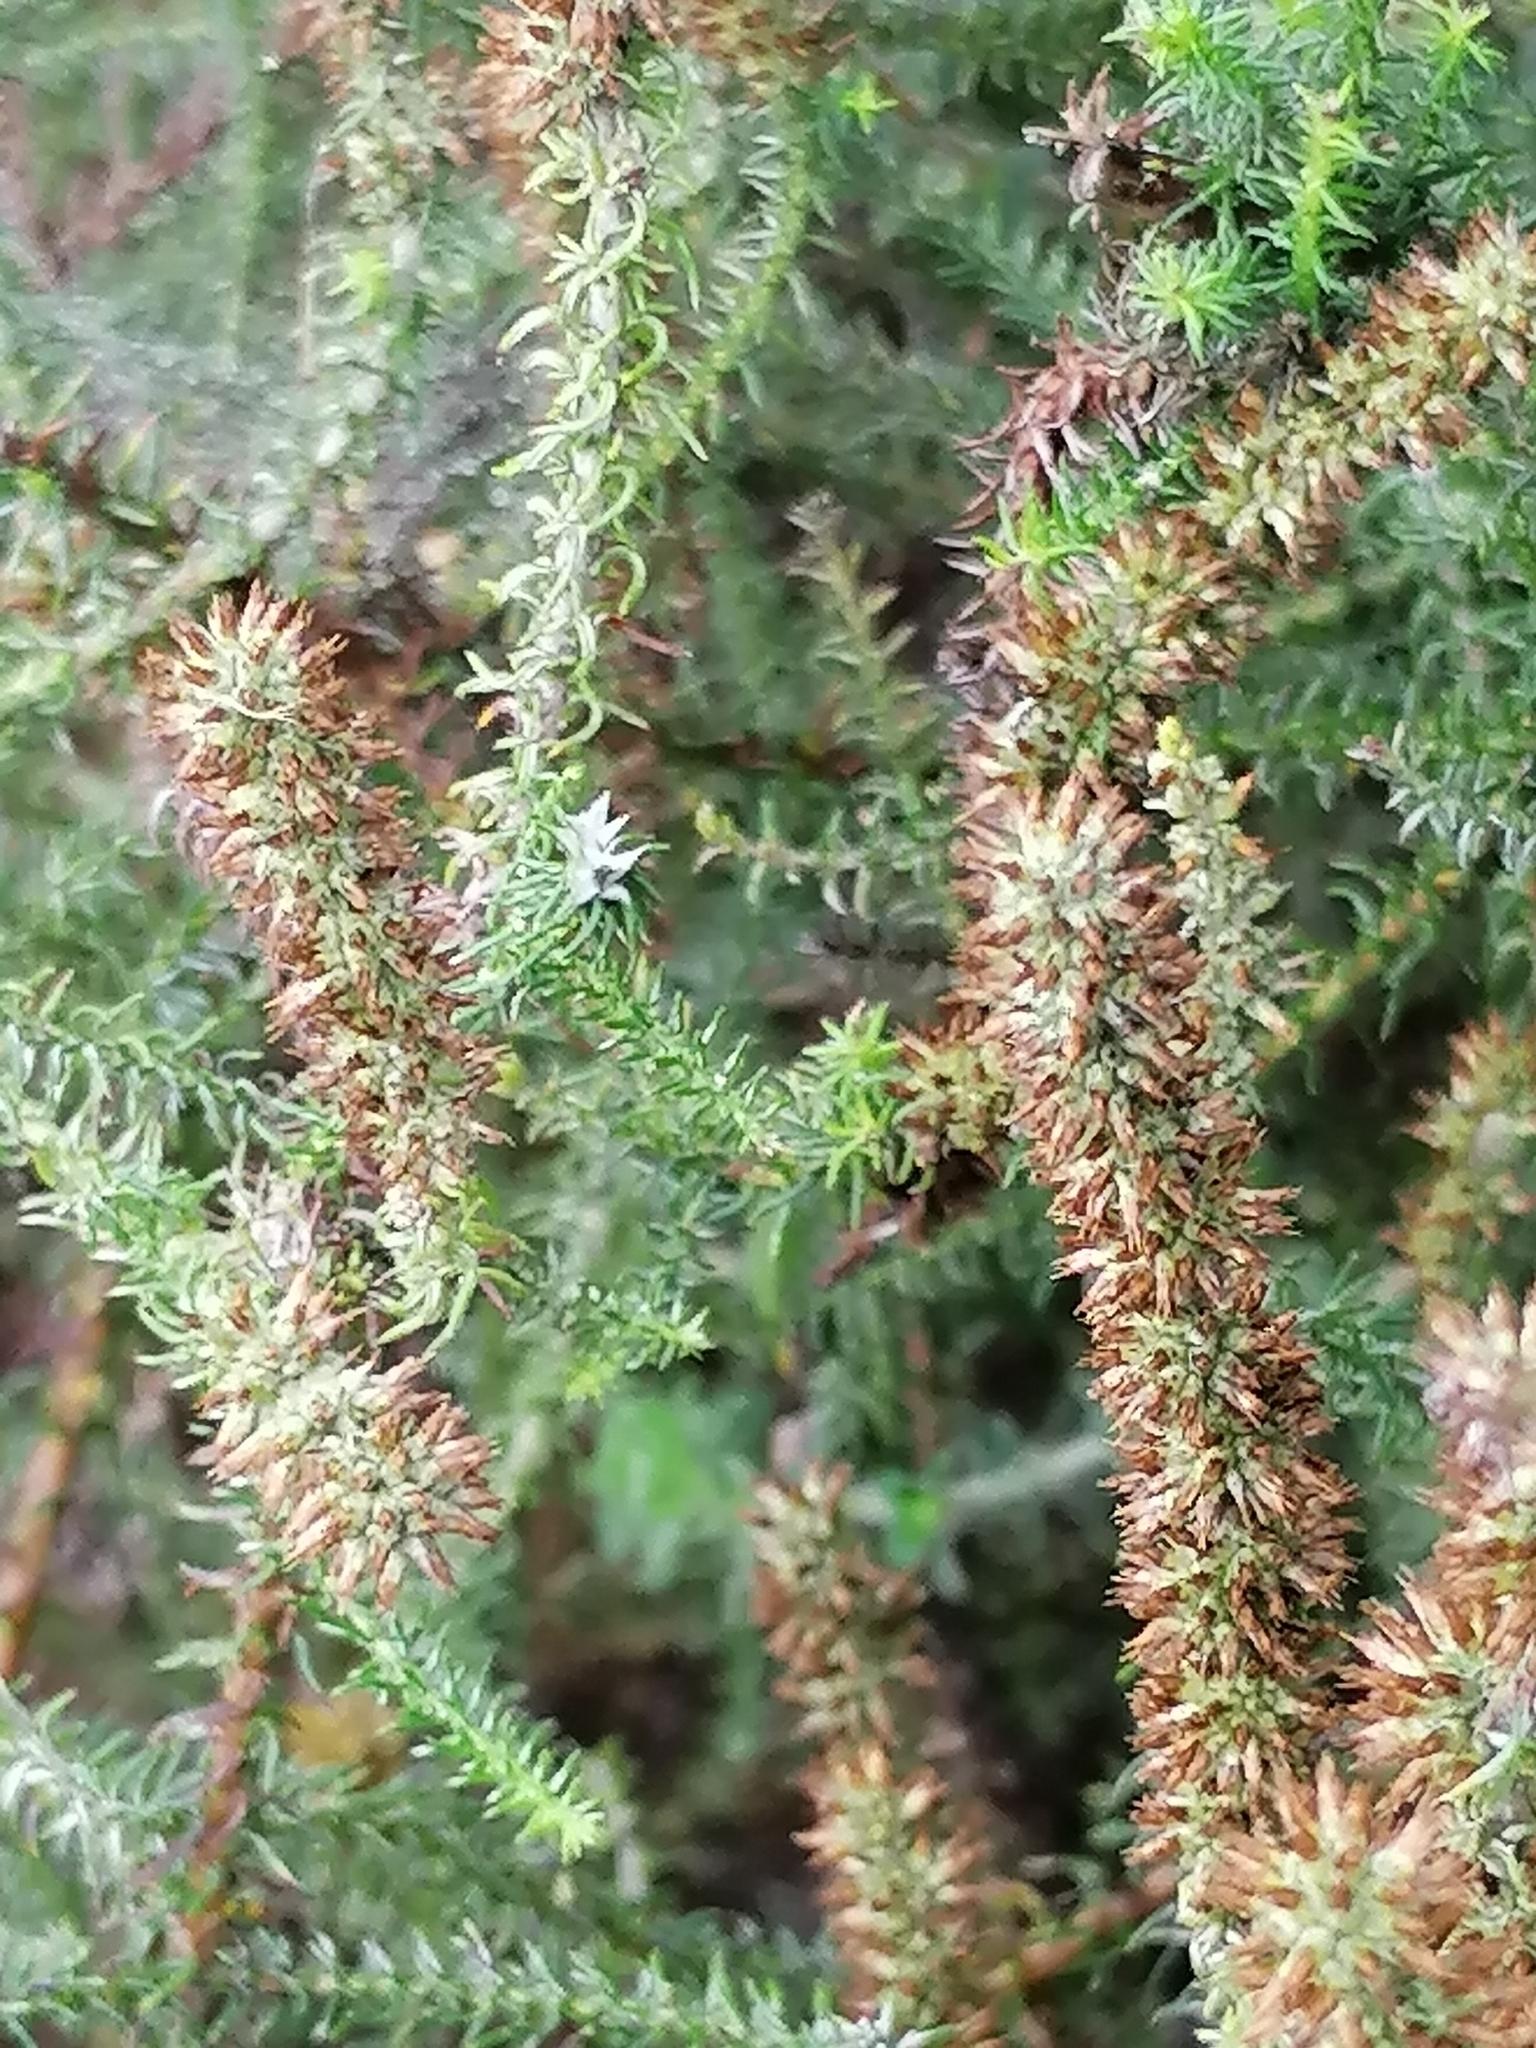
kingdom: Plantae
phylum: Tracheophyta
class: Magnoliopsida
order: Asterales
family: Asteraceae
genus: Seriphium
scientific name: Seriphium cinereum
